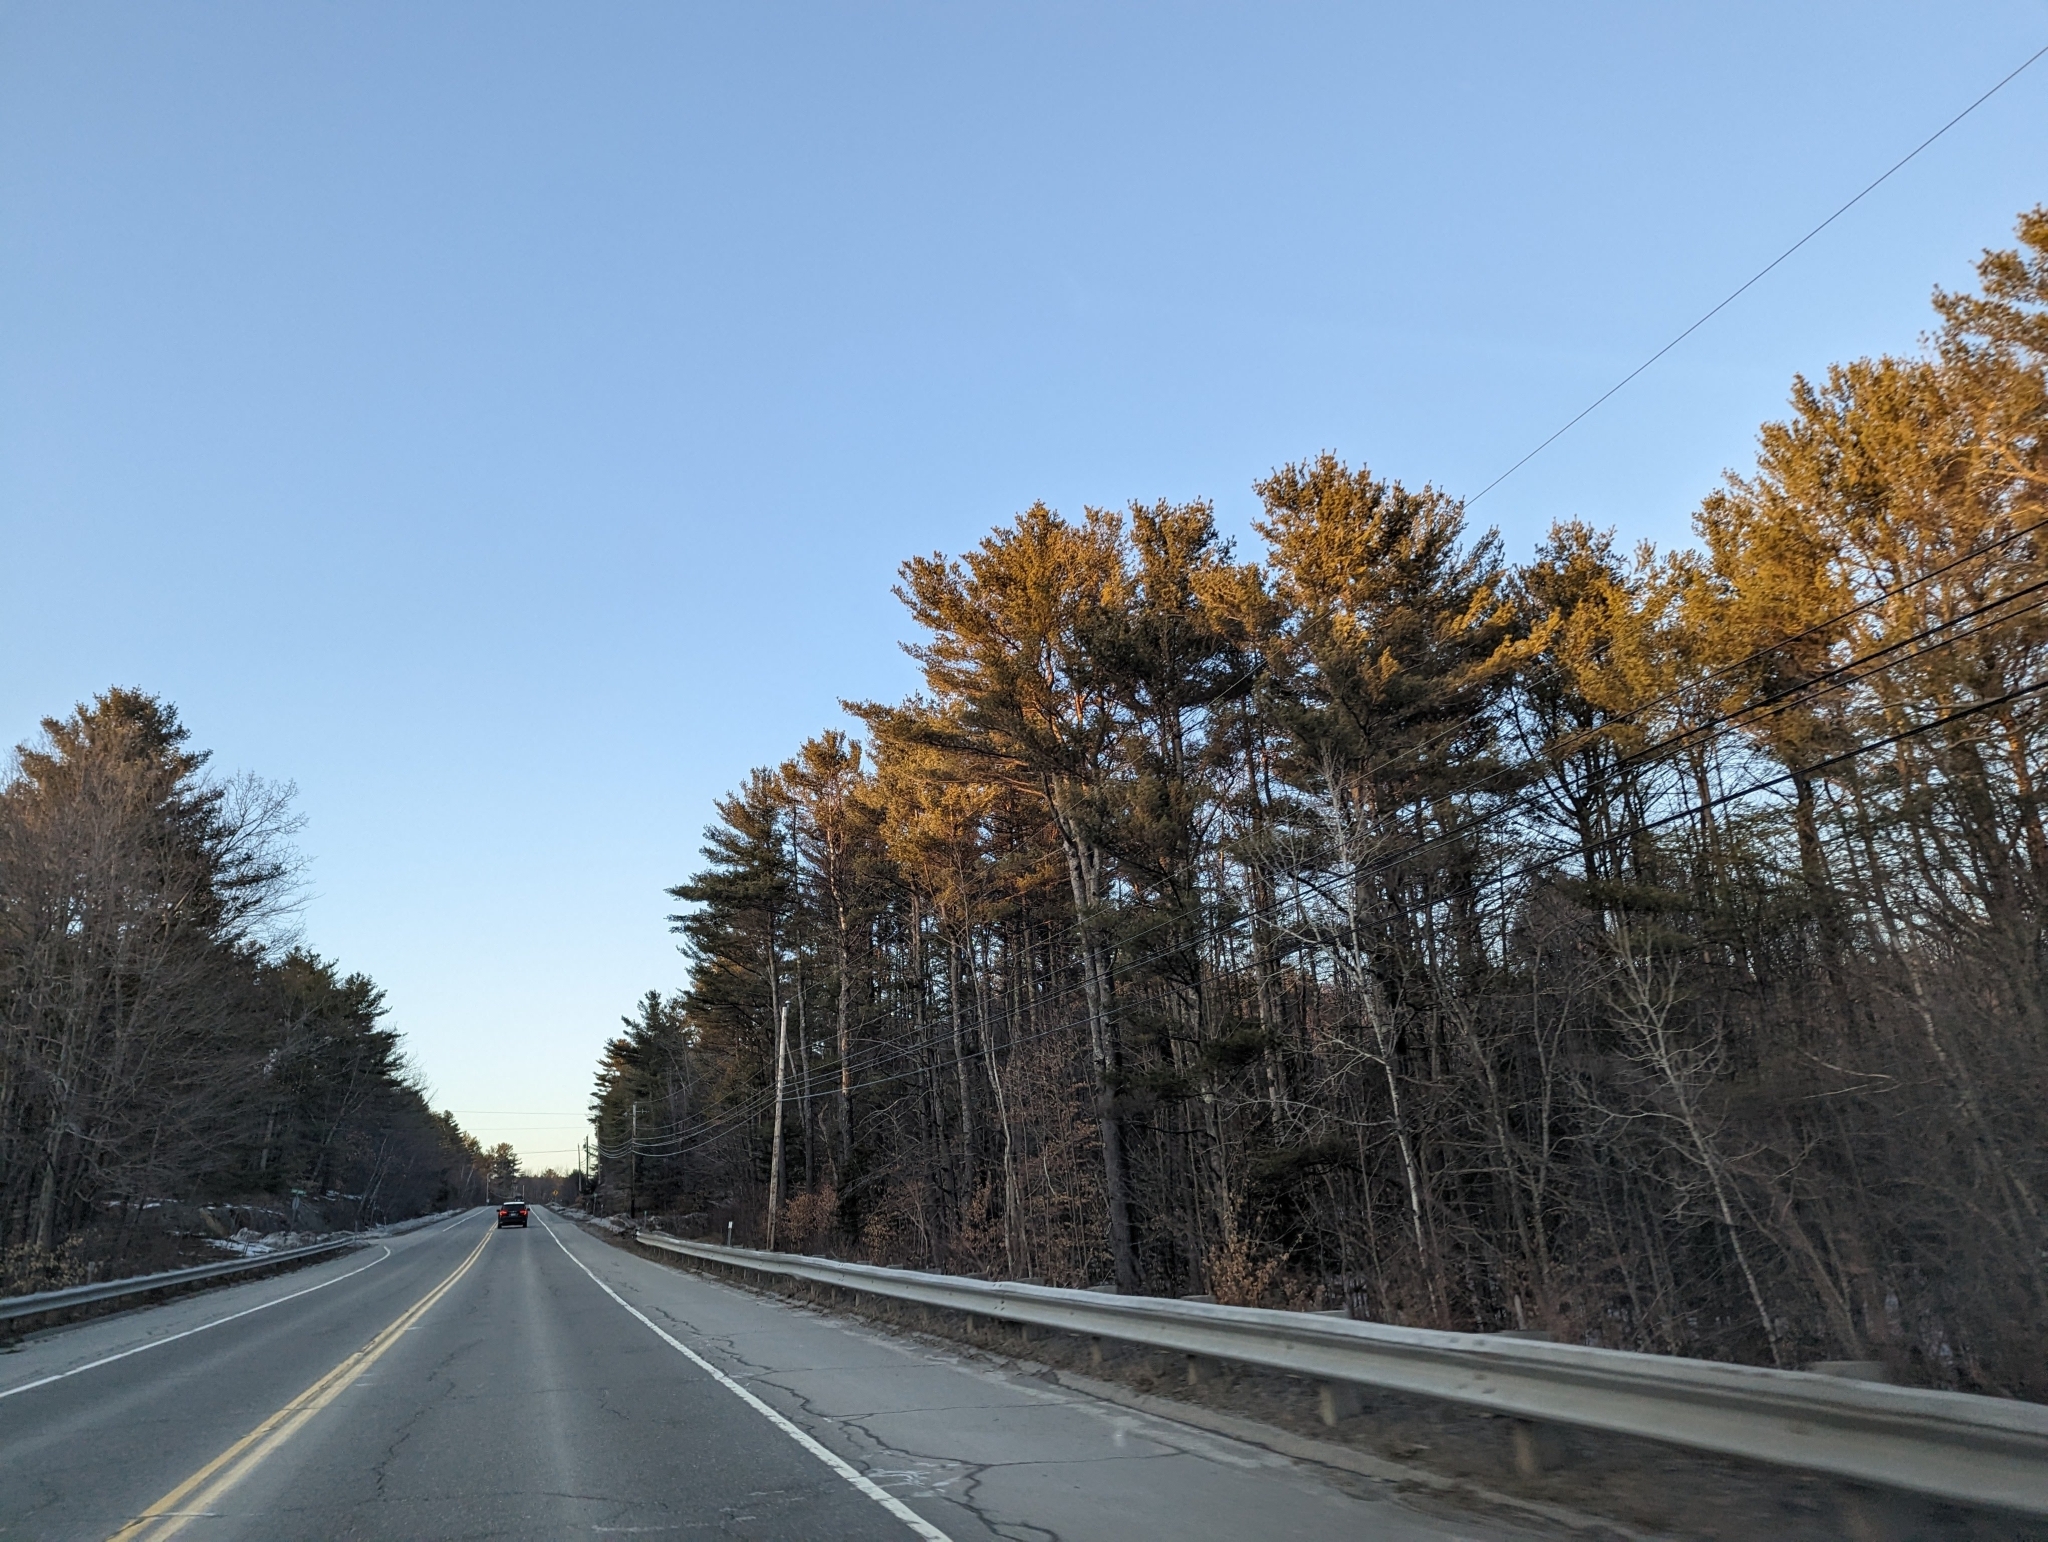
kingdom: Plantae
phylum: Tracheophyta
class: Pinopsida
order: Pinales
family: Pinaceae
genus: Pinus
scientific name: Pinus strobus
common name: Weymouth pine
